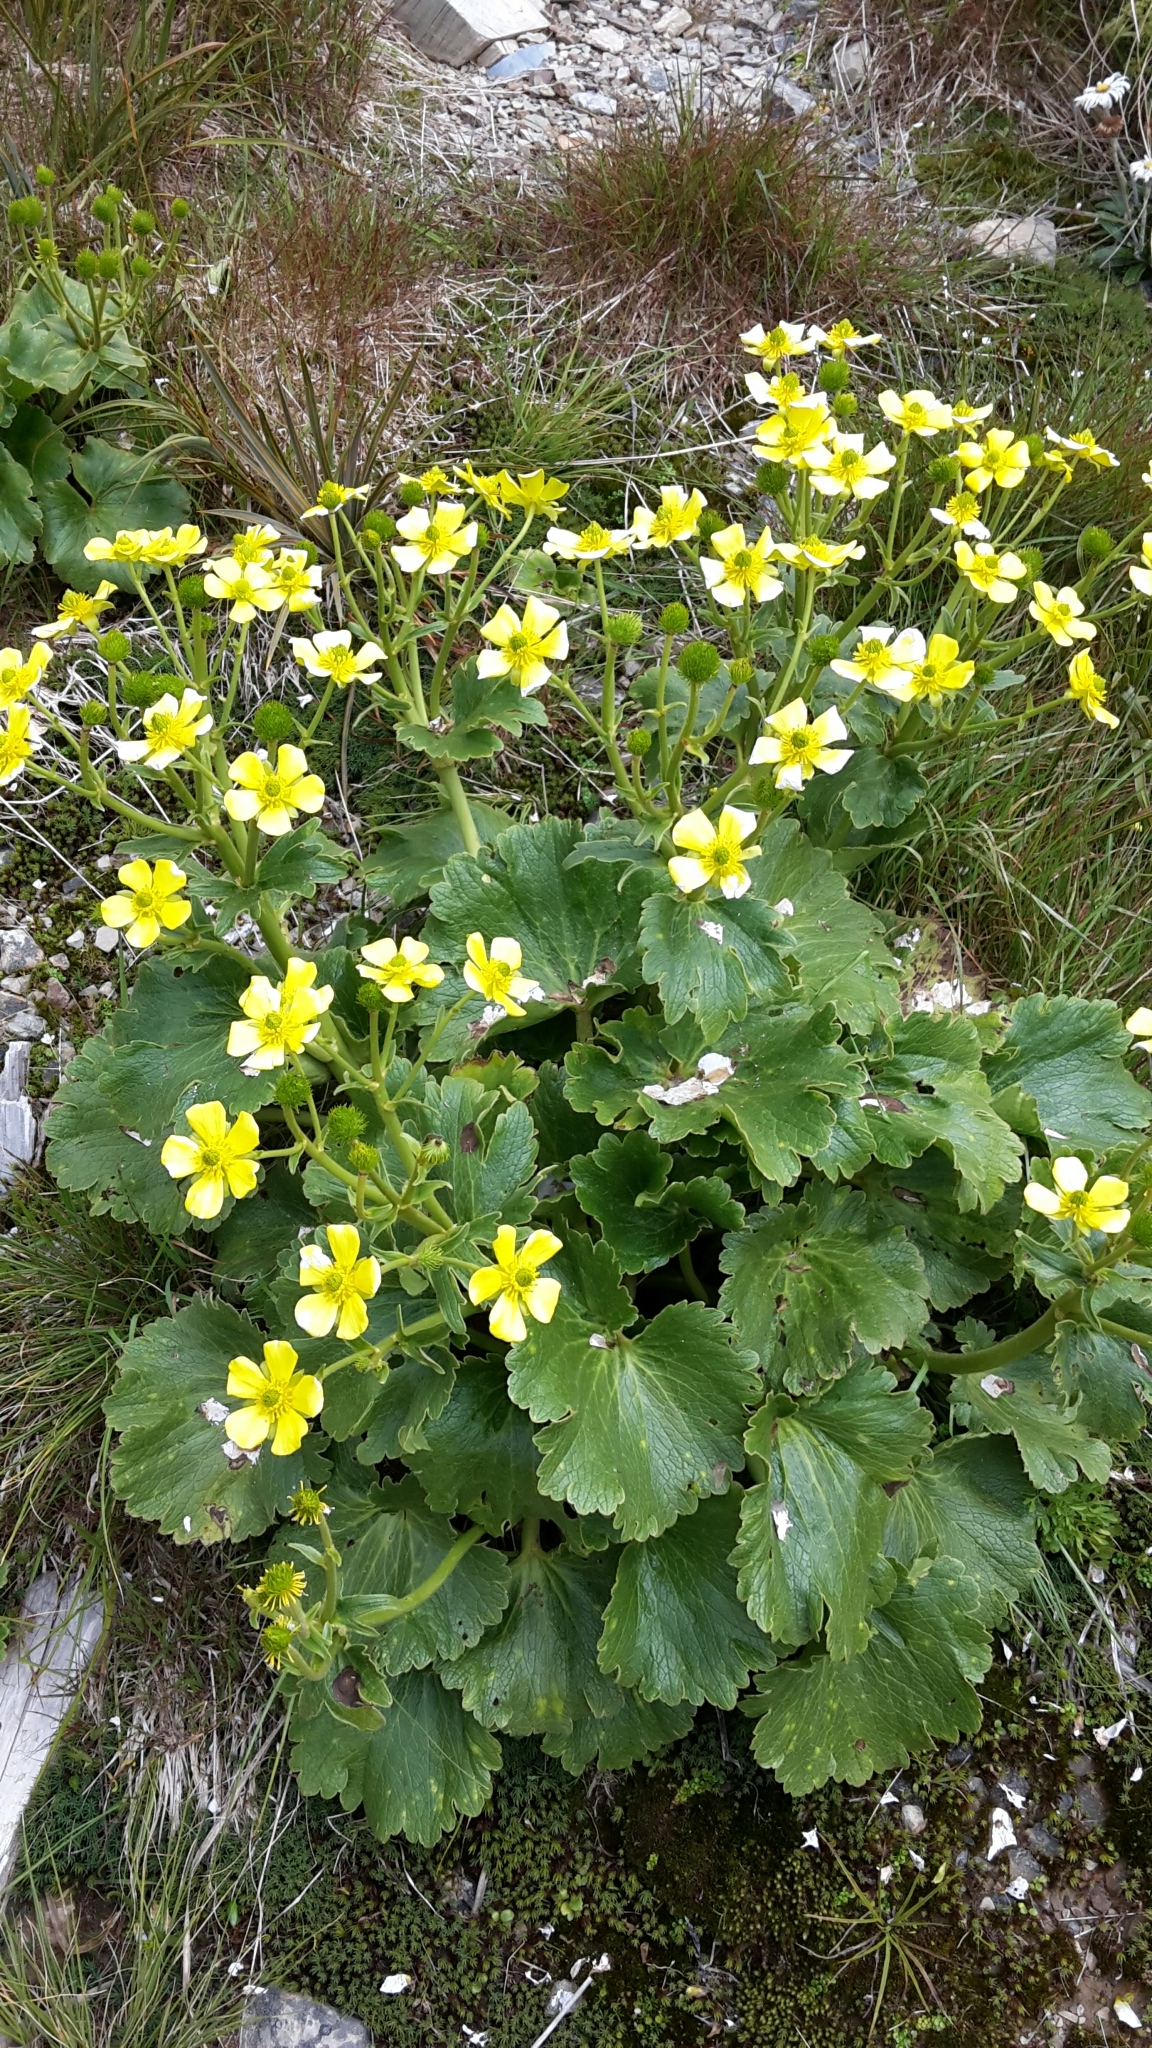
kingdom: Plantae
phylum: Tracheophyta
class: Magnoliopsida
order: Ranunculales
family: Ranunculaceae
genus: Ranunculus
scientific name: Ranunculus insignis
